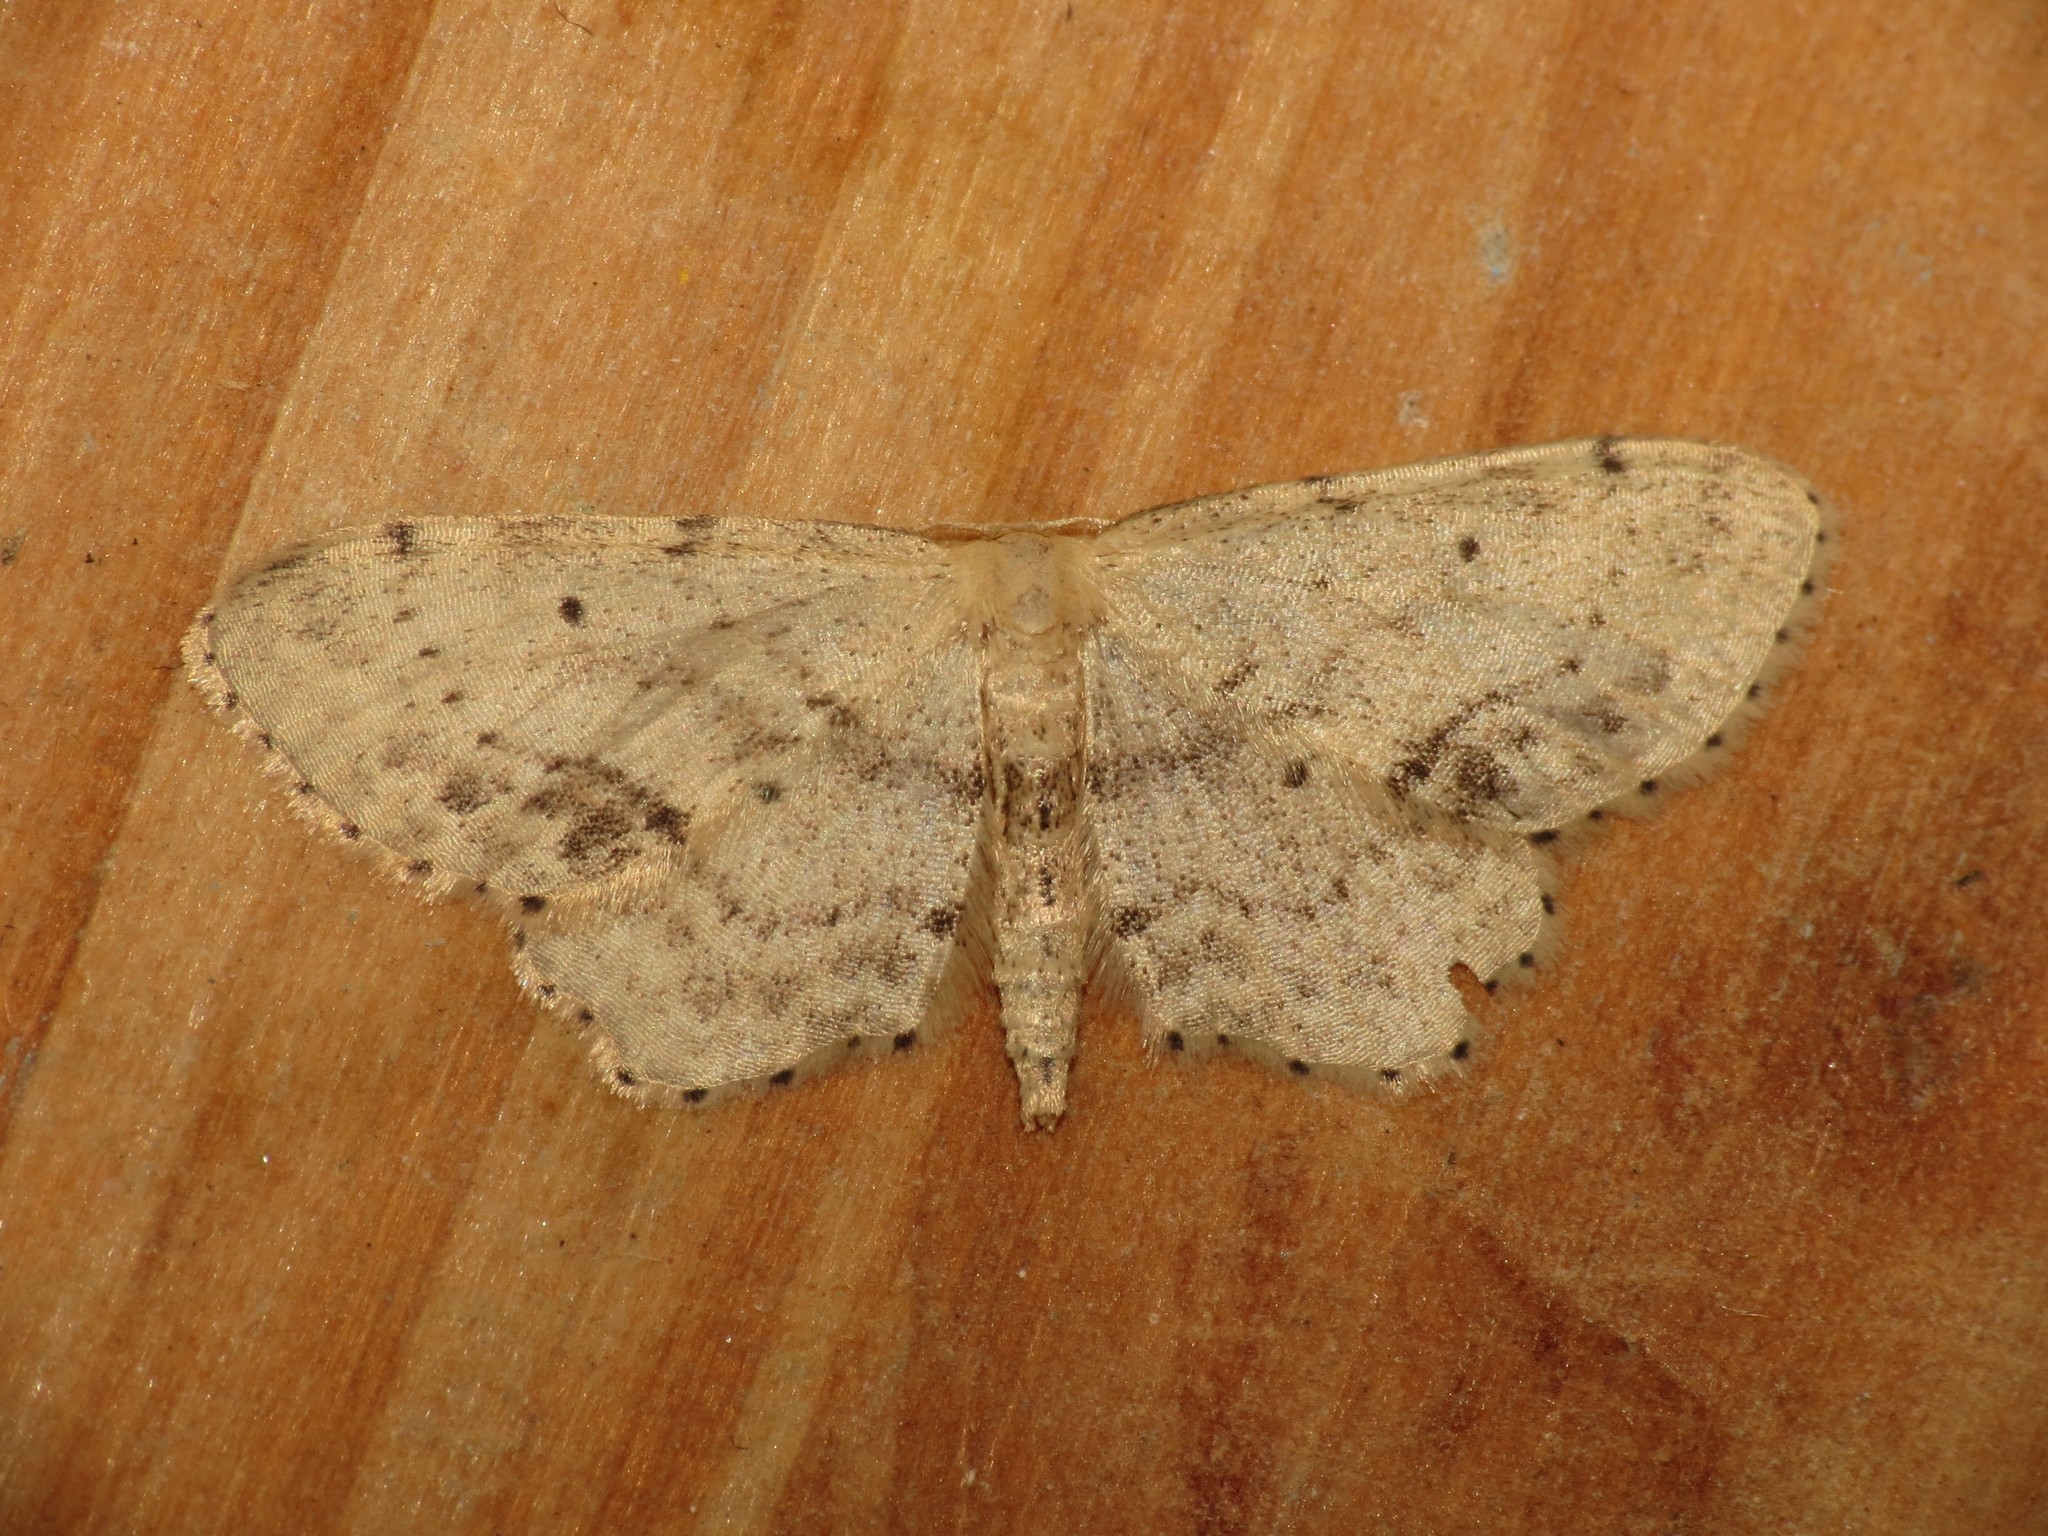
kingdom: Animalia
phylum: Arthropoda
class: Insecta
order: Lepidoptera
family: Geometridae
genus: Idaea
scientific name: Idaea dimidiata
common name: Single-dotted wave
